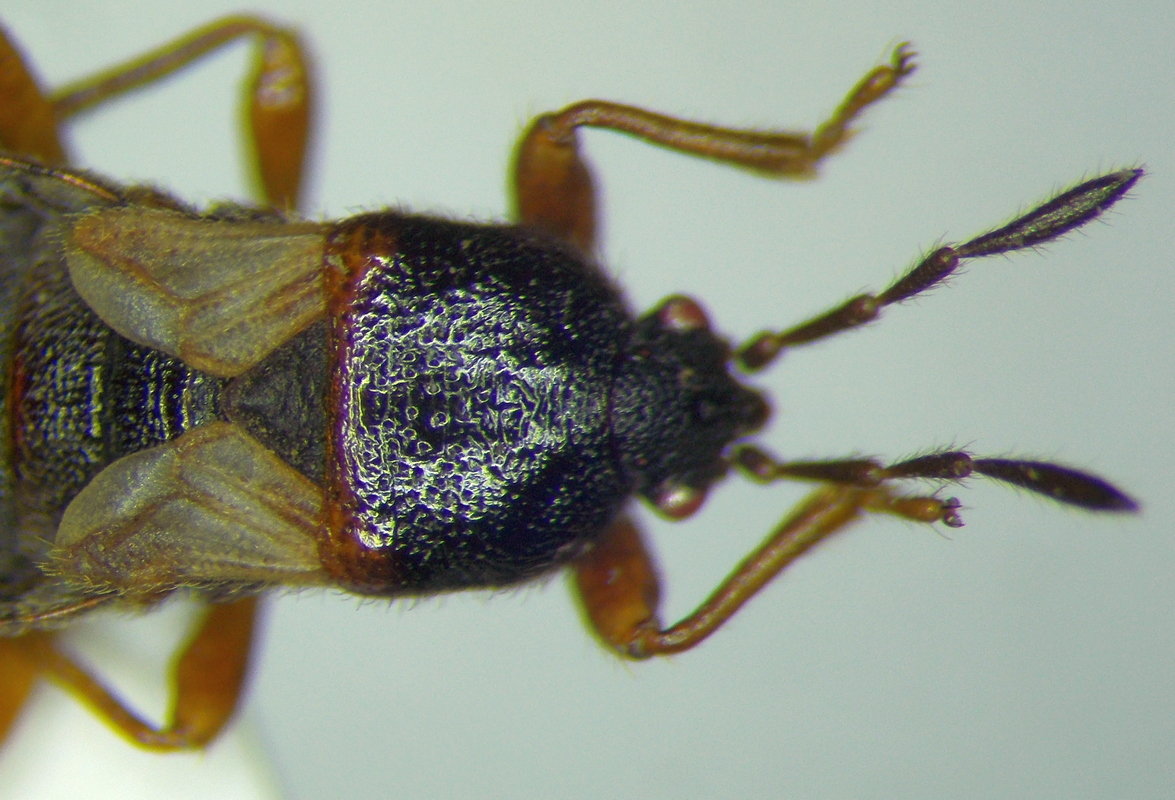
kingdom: Animalia
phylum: Arthropoda
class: Insecta
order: Hemiptera
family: Blissidae
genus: Dimorphopterus
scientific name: Dimorphopterus blissoides
